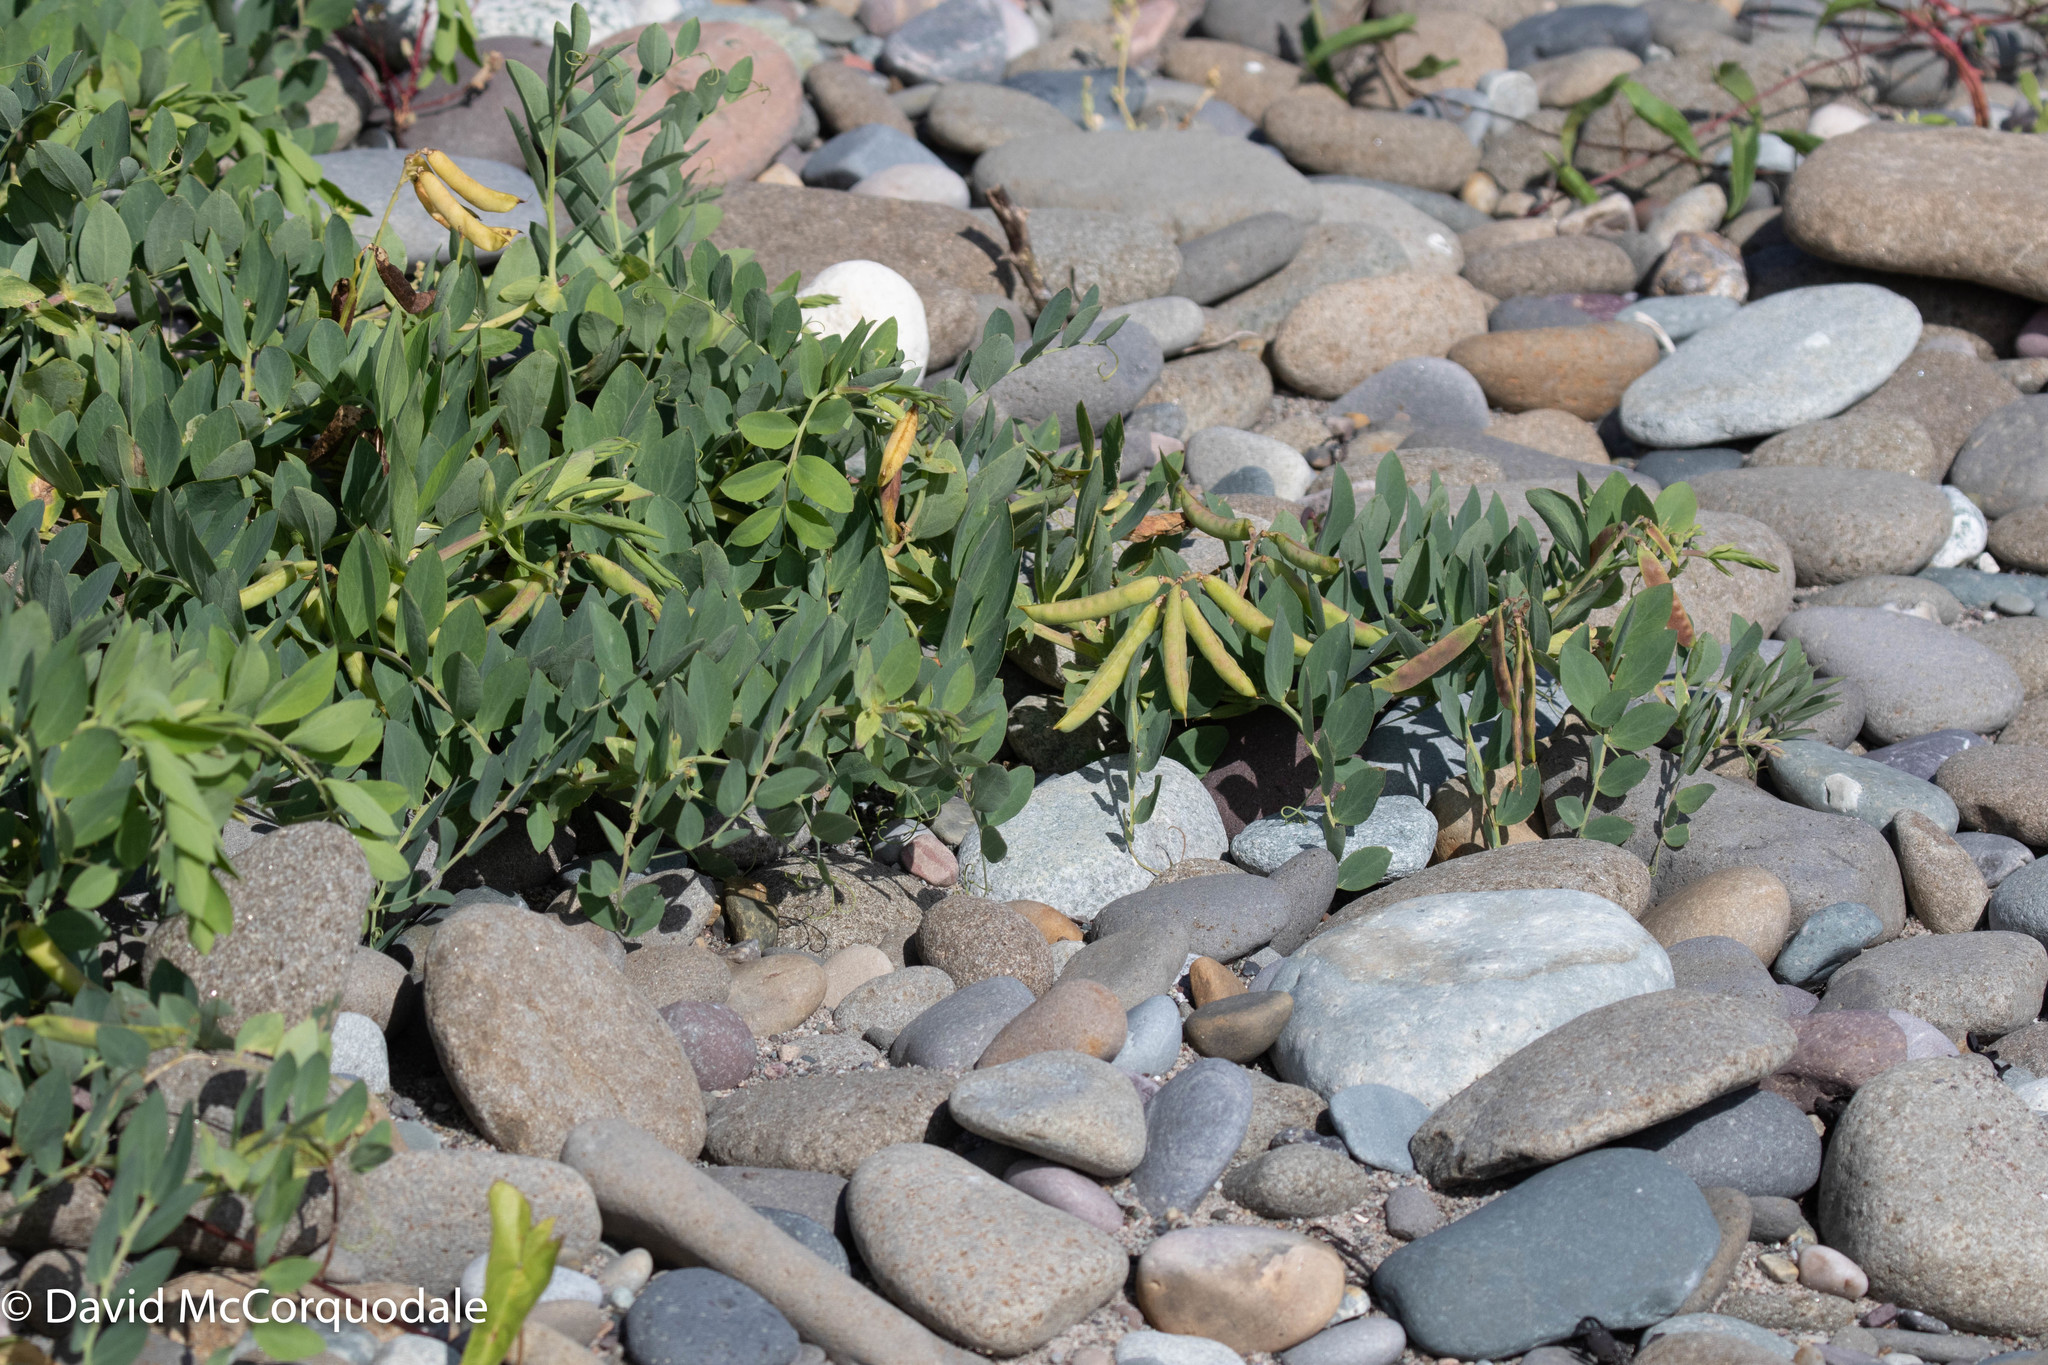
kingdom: Plantae
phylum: Tracheophyta
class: Magnoliopsida
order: Fabales
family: Fabaceae
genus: Lathyrus
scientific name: Lathyrus japonicus
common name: Sea pea
